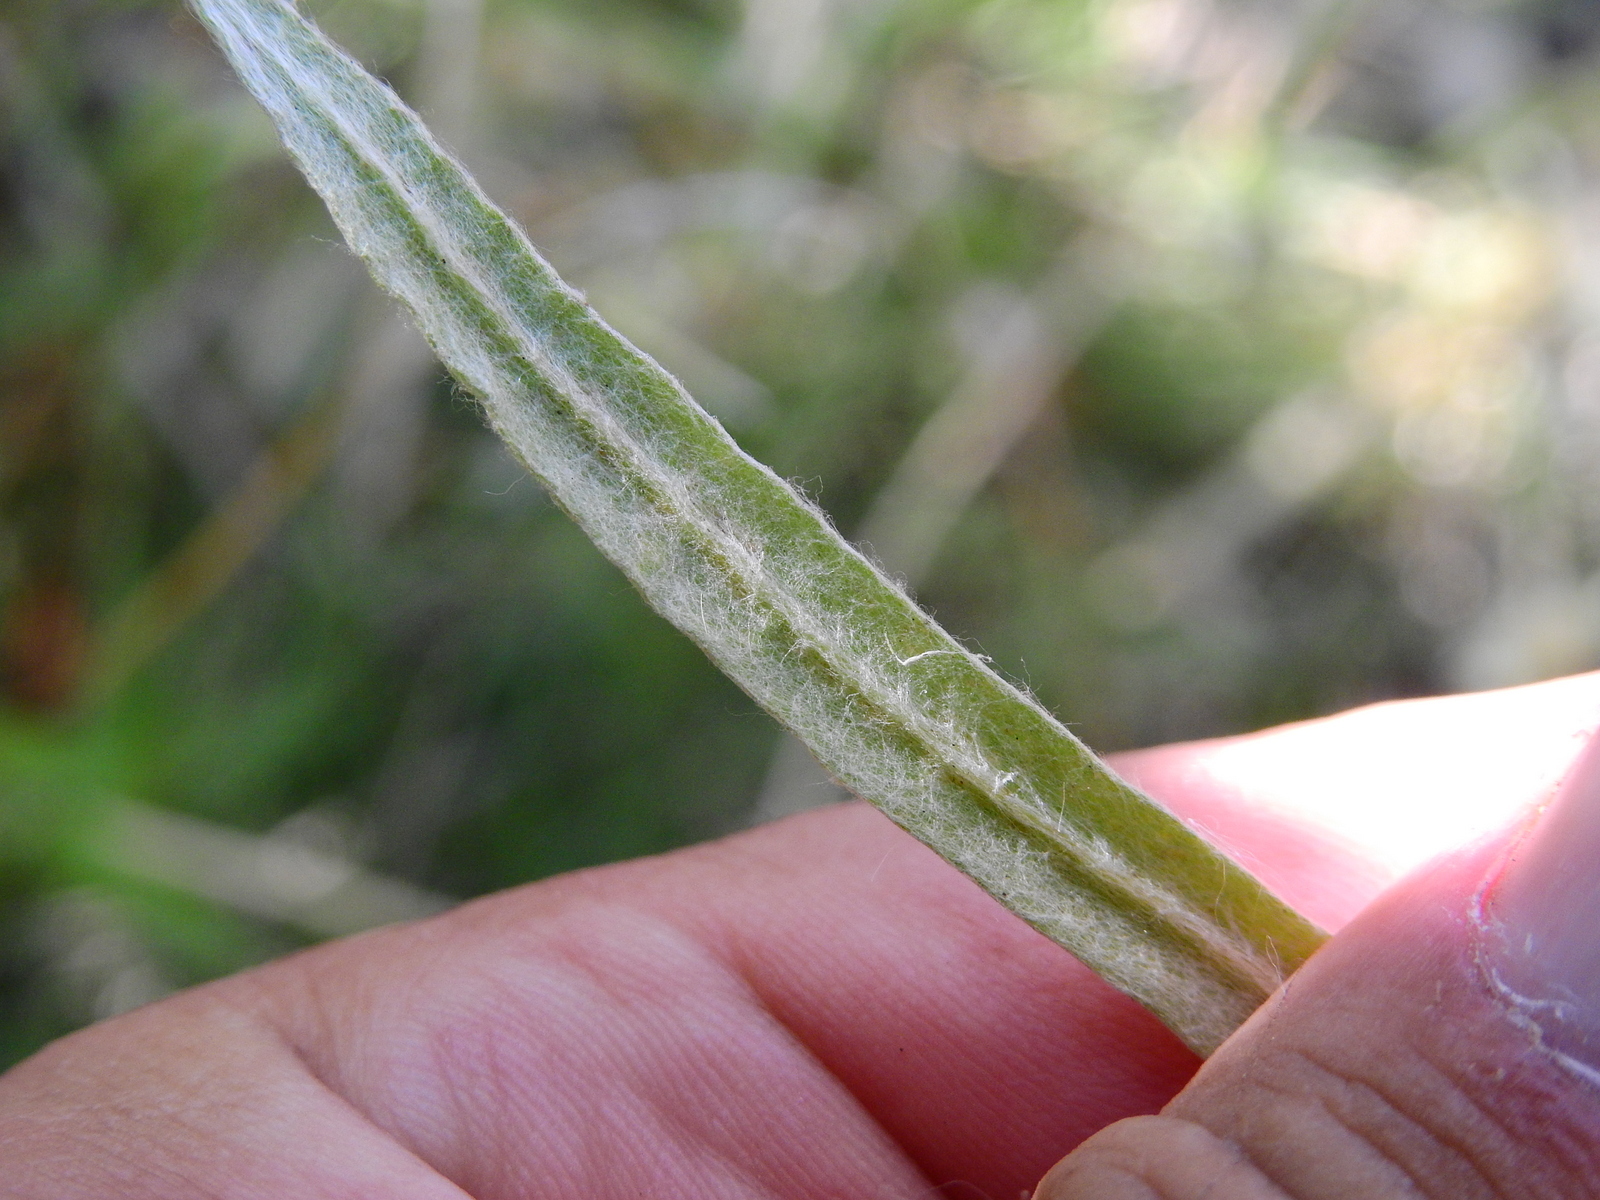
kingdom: Plantae
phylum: Tracheophyta
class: Magnoliopsida
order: Asterales
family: Asteraceae
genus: Pseudognaphalium
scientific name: Pseudognaphalium gaudichaudianum
